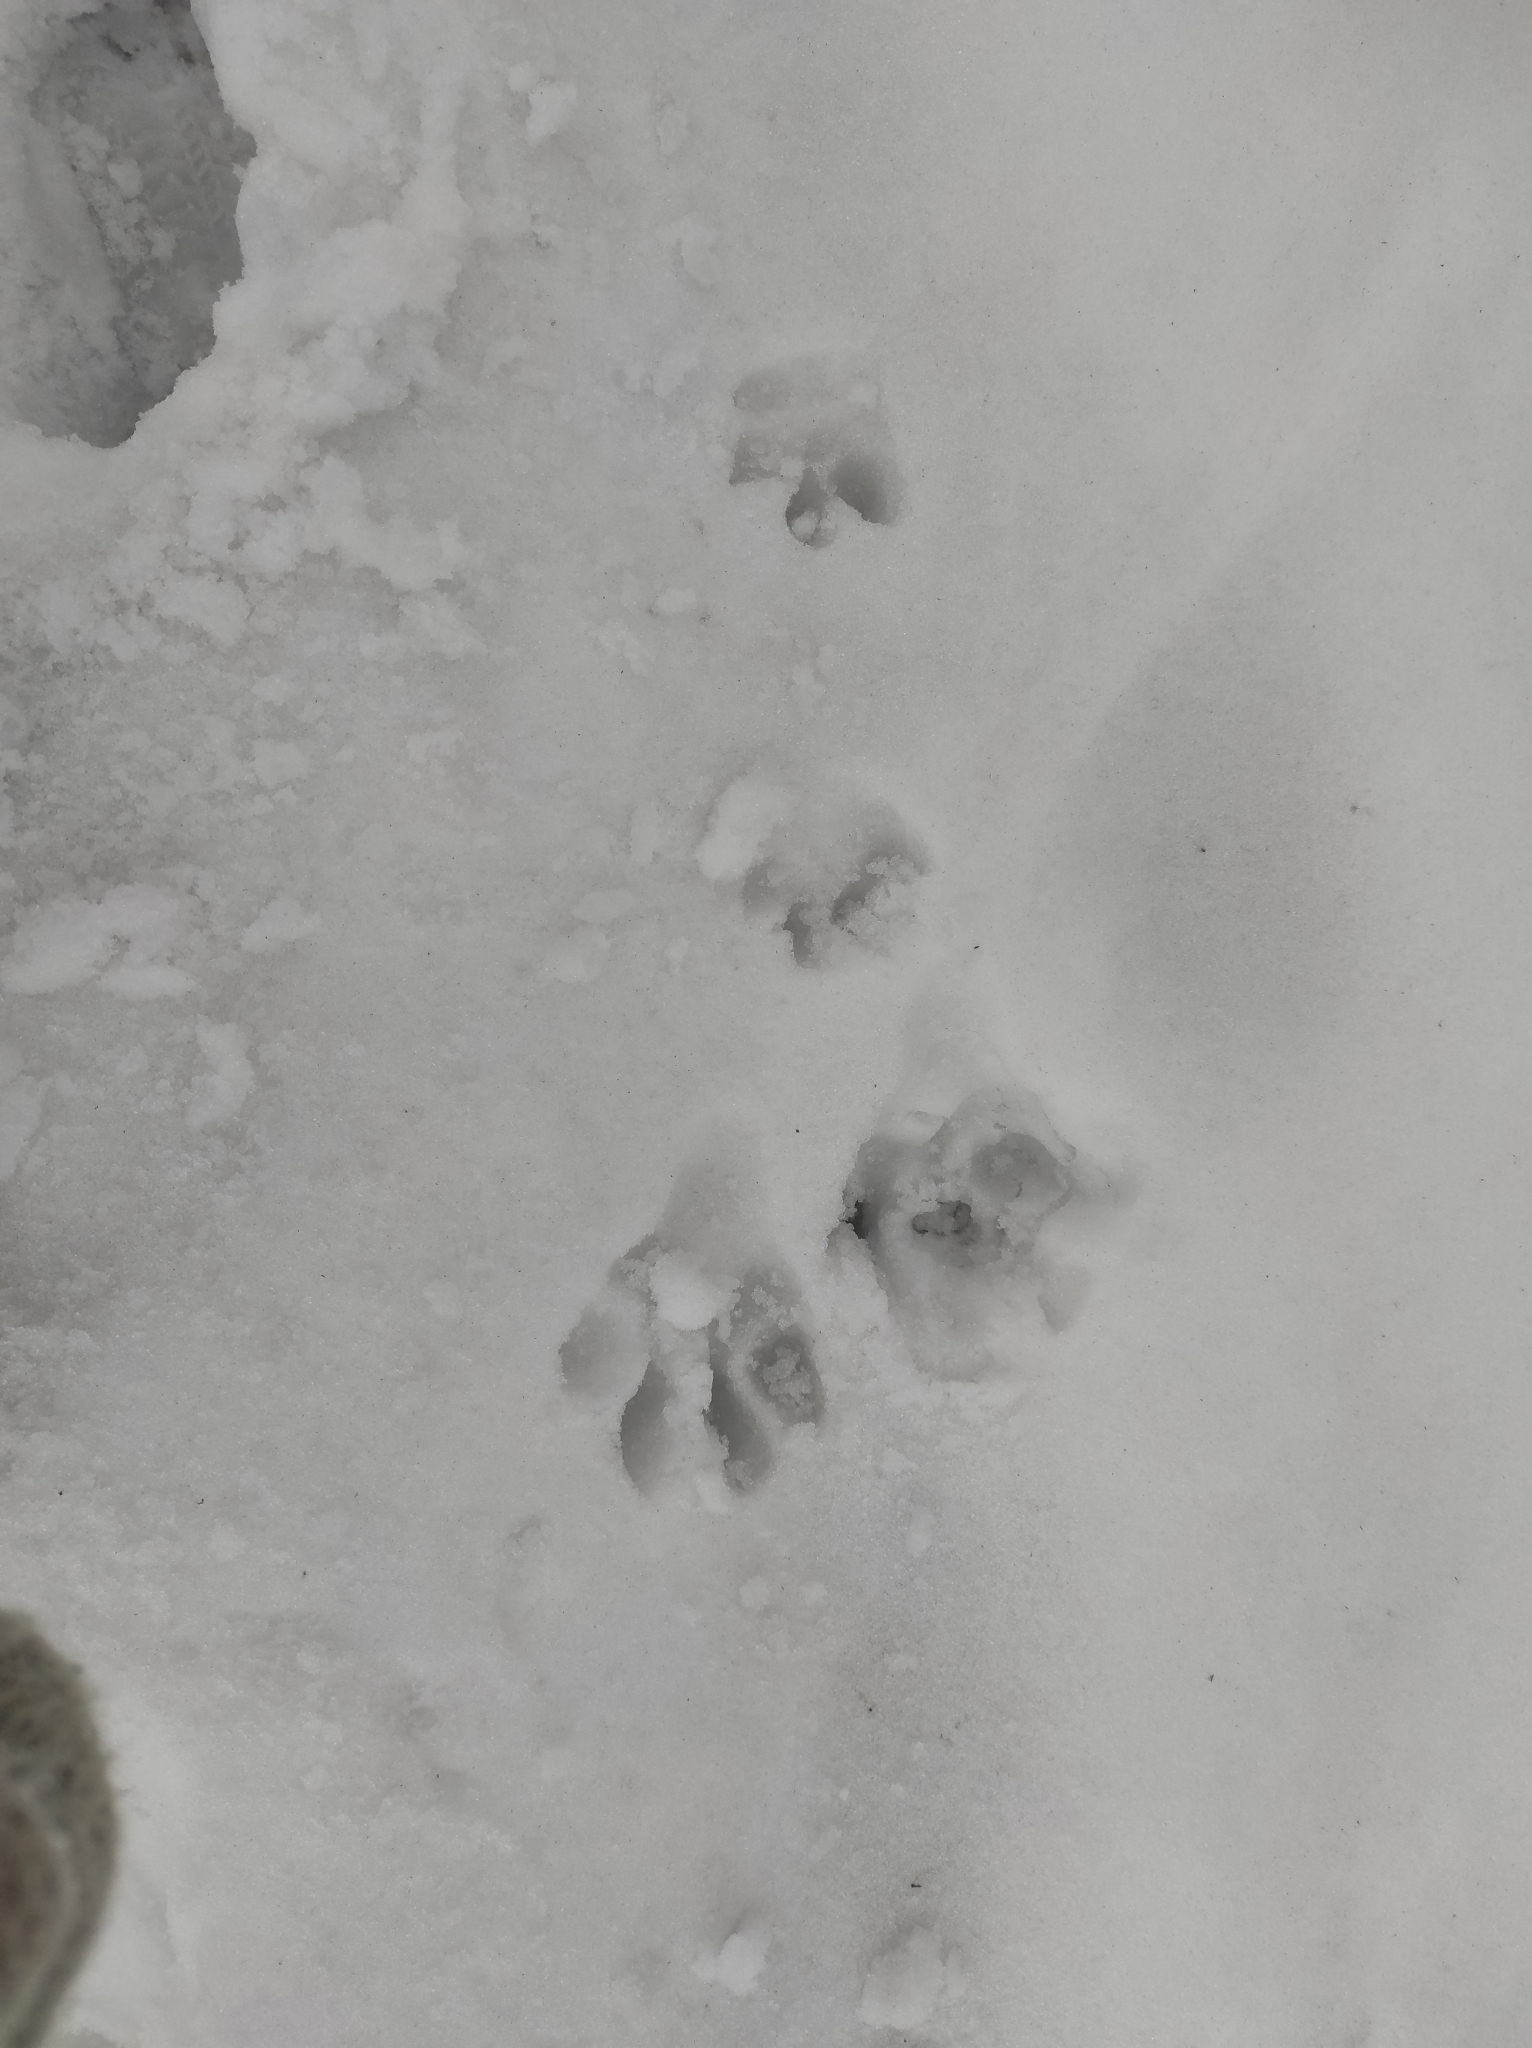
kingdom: Animalia
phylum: Chordata
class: Mammalia
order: Lagomorpha
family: Leporidae
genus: Lepus
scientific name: Lepus timidus
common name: Mountain hare
